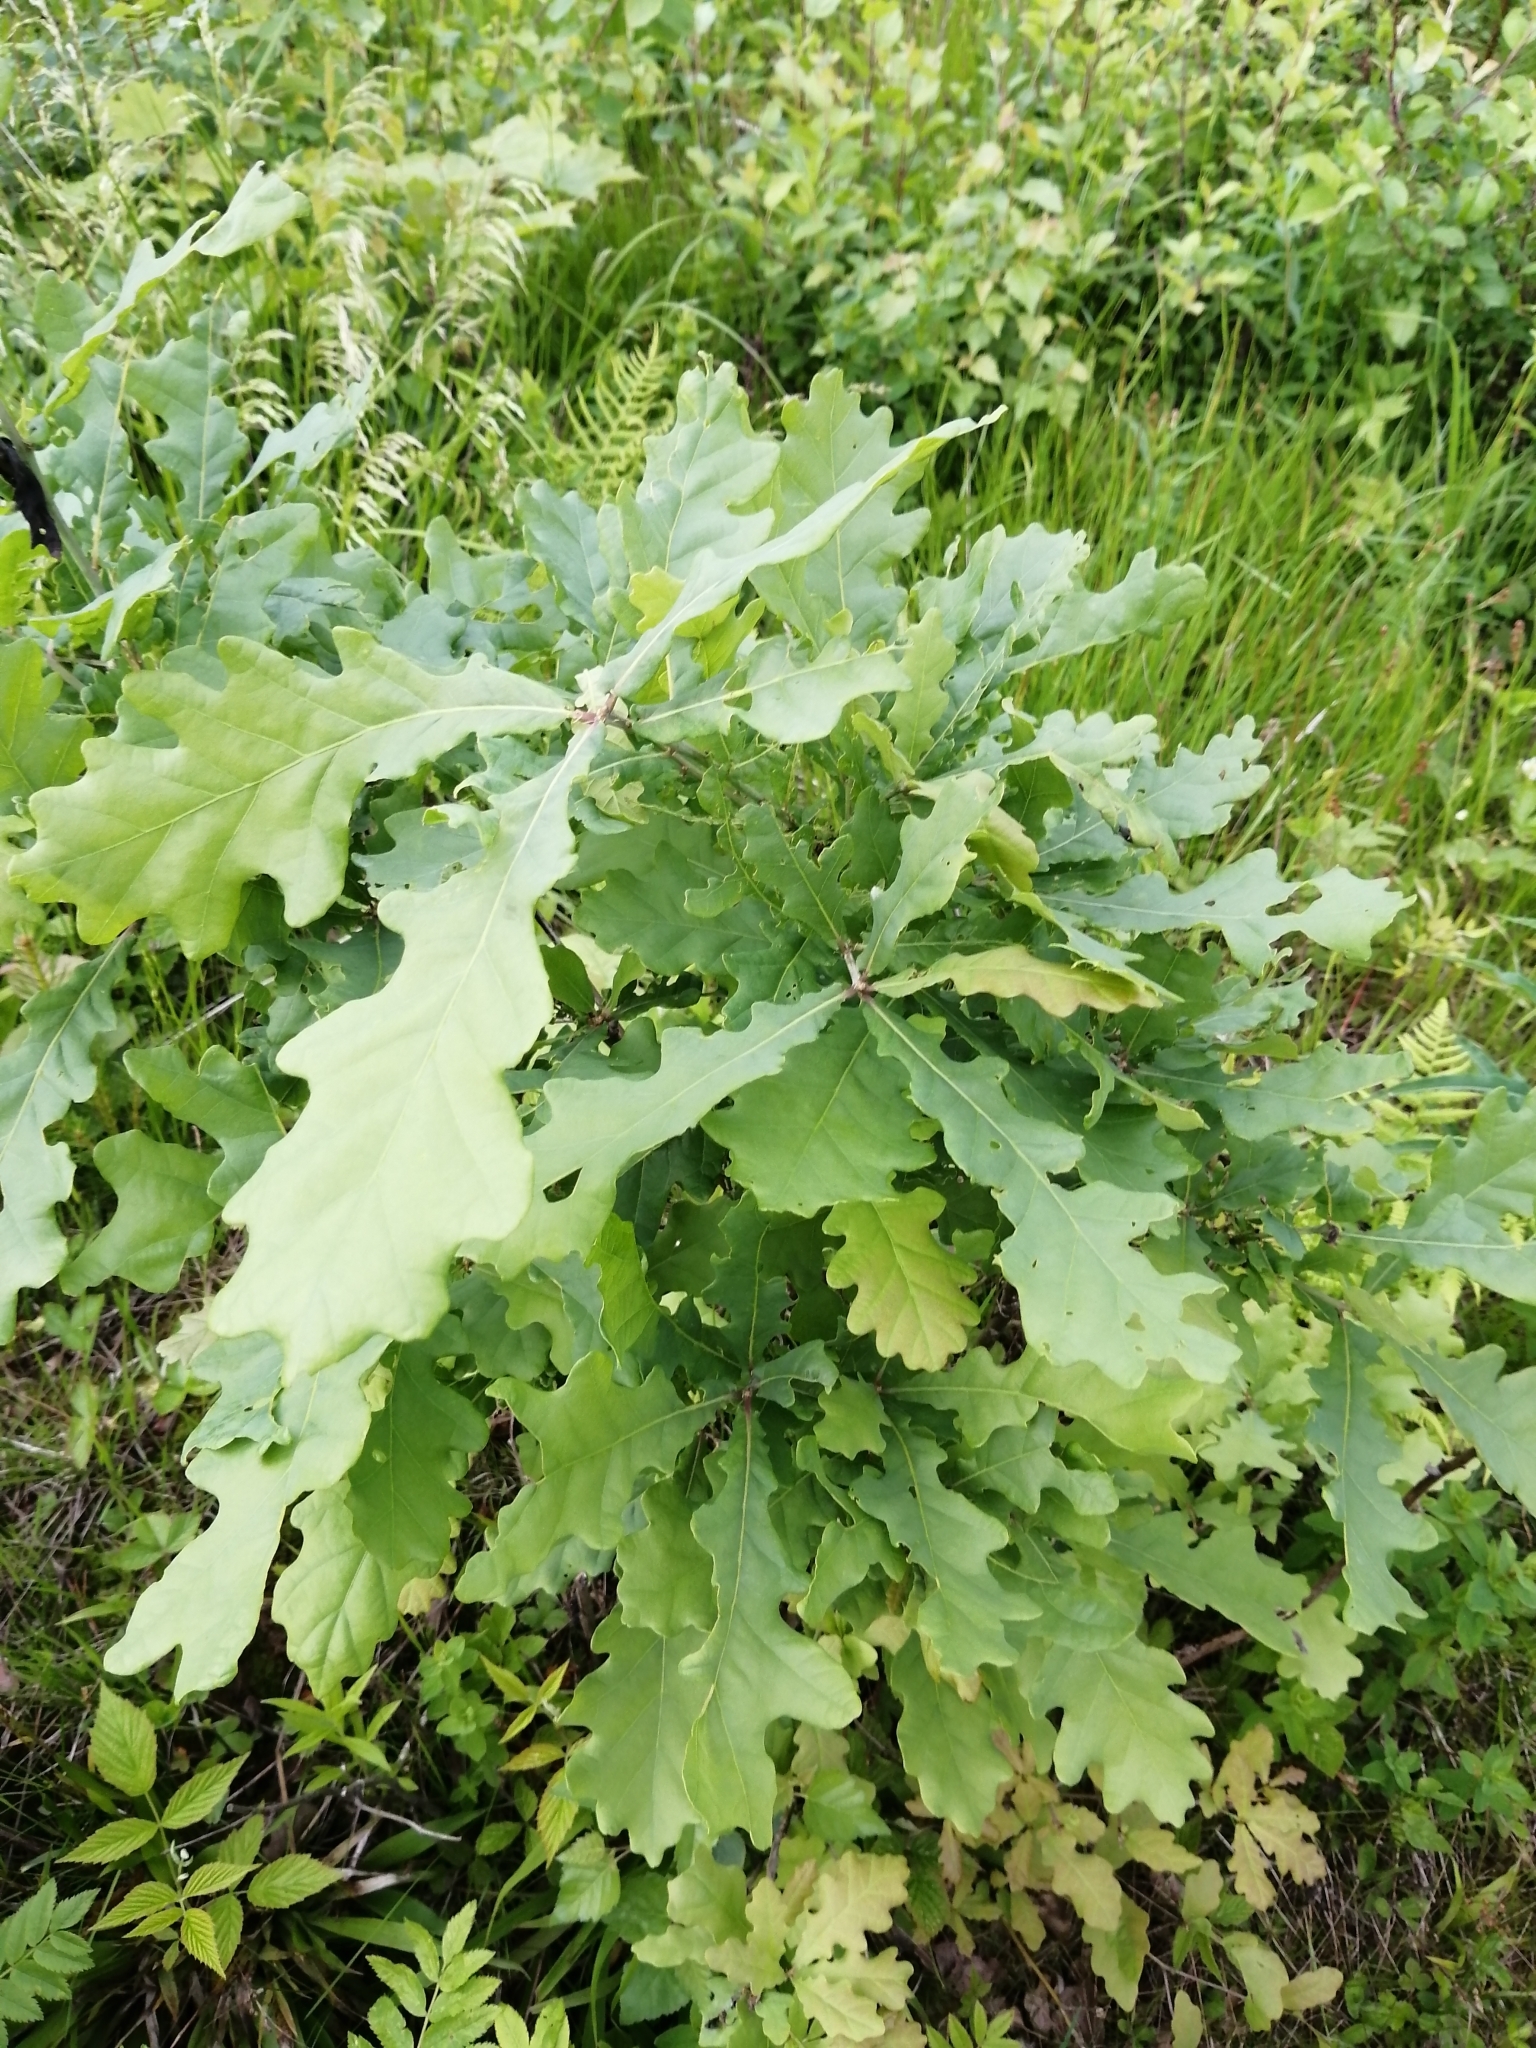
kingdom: Plantae
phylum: Tracheophyta
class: Magnoliopsida
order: Fagales
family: Fagaceae
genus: Quercus
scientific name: Quercus robur
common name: Pedunculate oak
